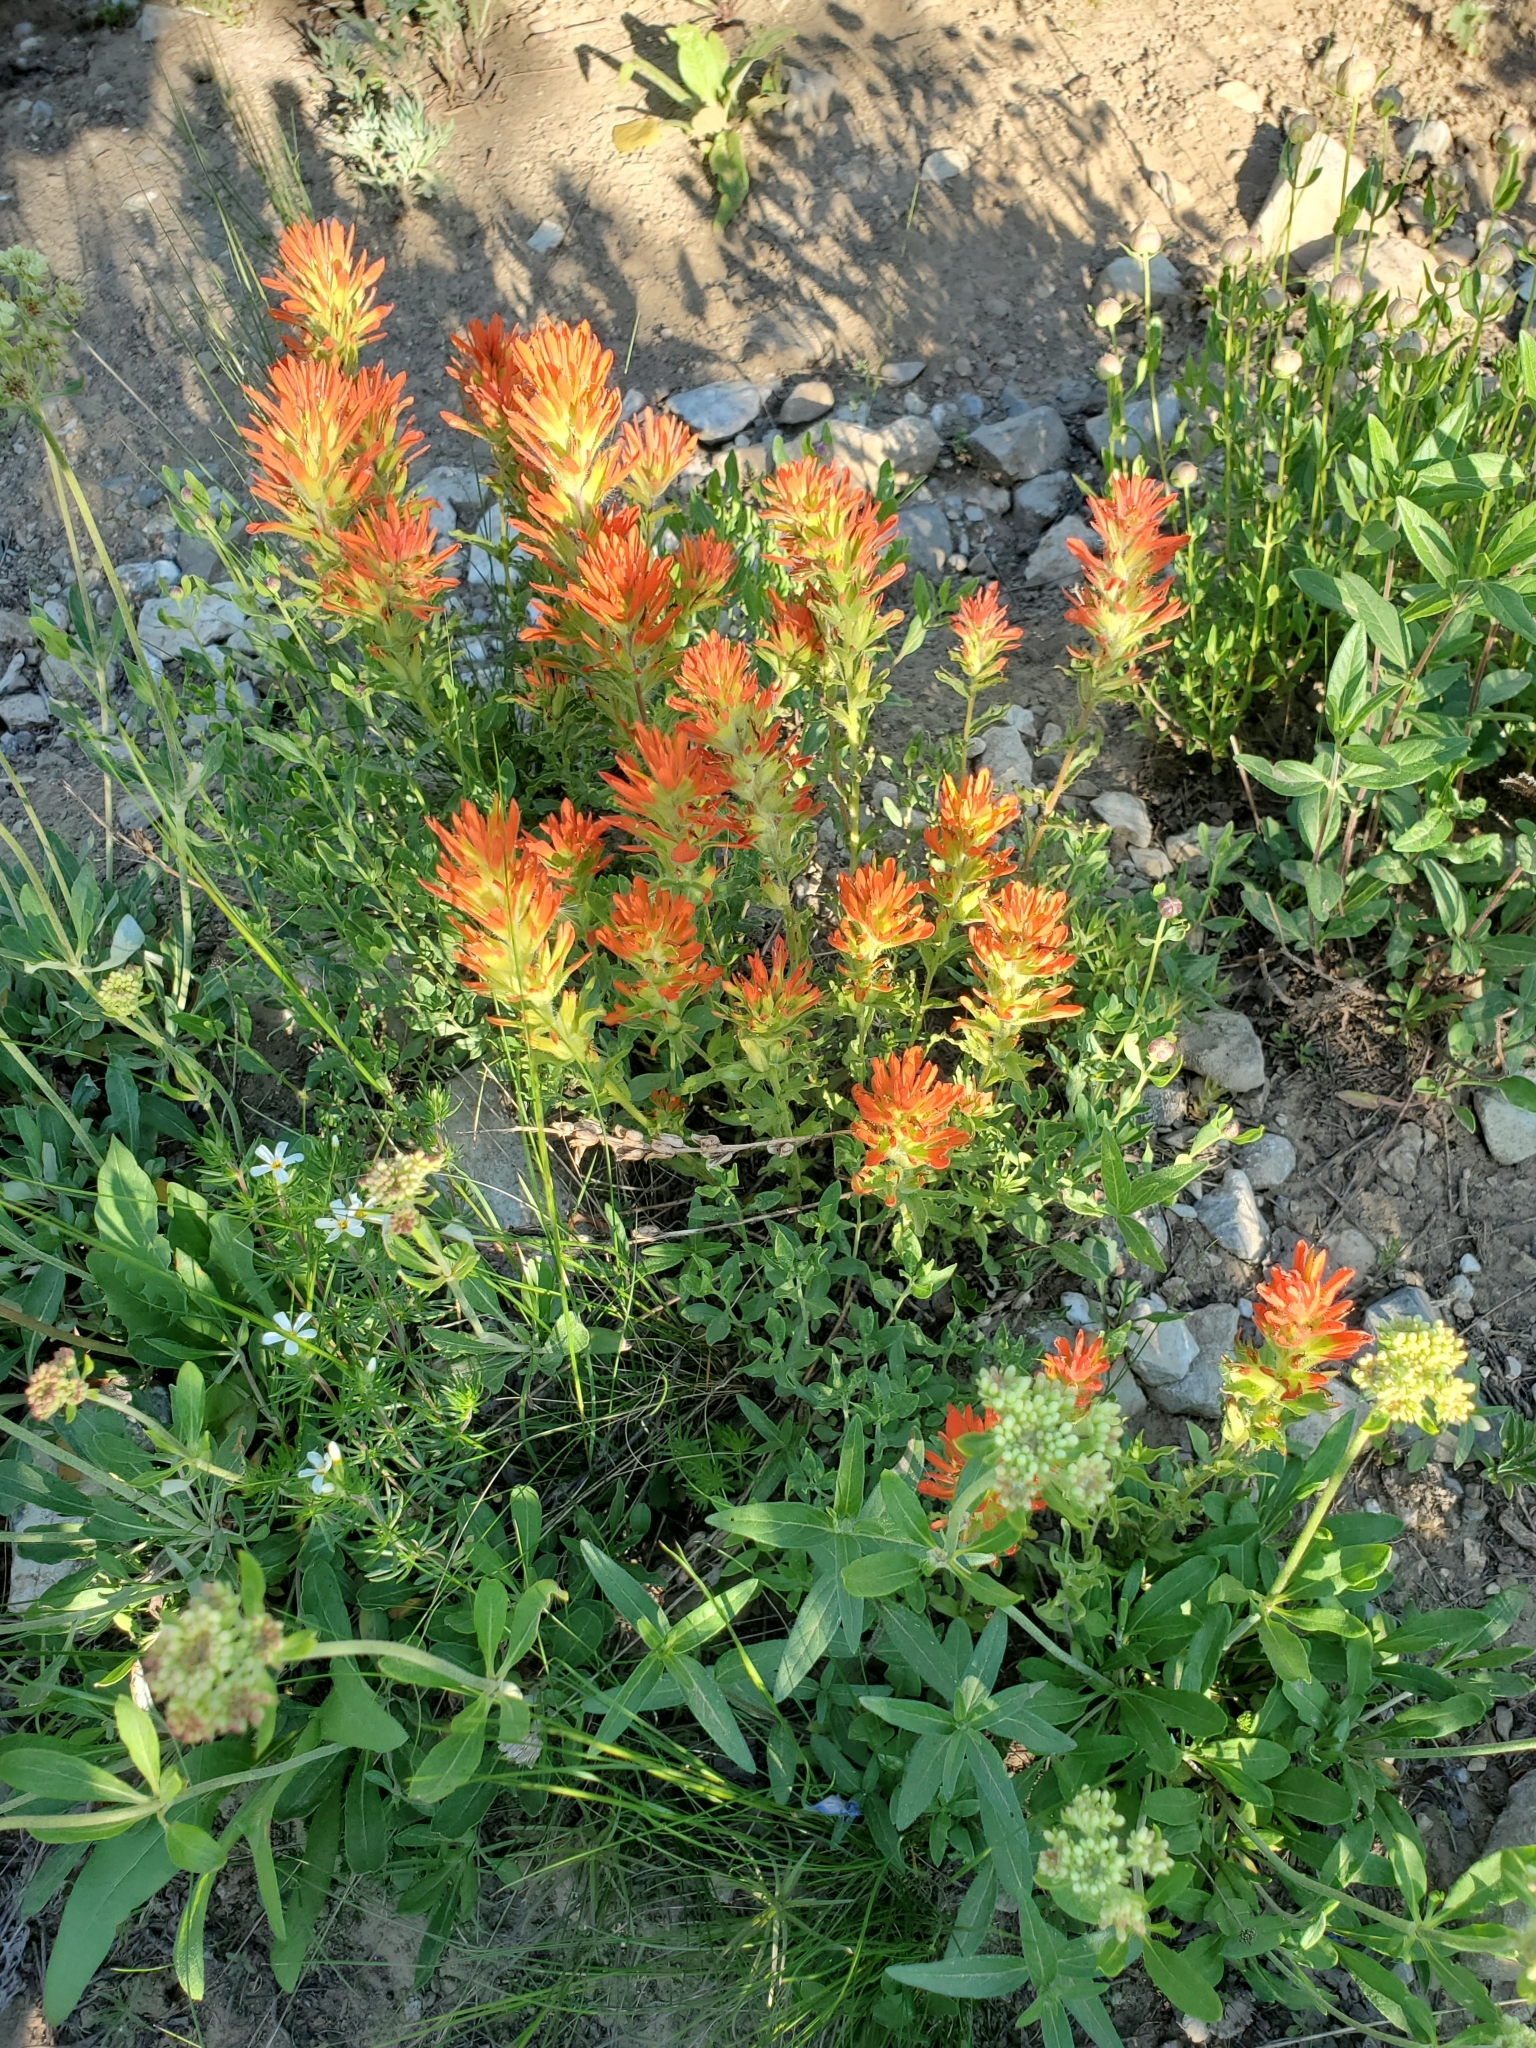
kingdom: Plantae
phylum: Tracheophyta
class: Magnoliopsida
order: Lamiales
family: Orobanchaceae
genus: Castilleja
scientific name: Castilleja applegatei
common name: Wavy-leaf paintbrush
